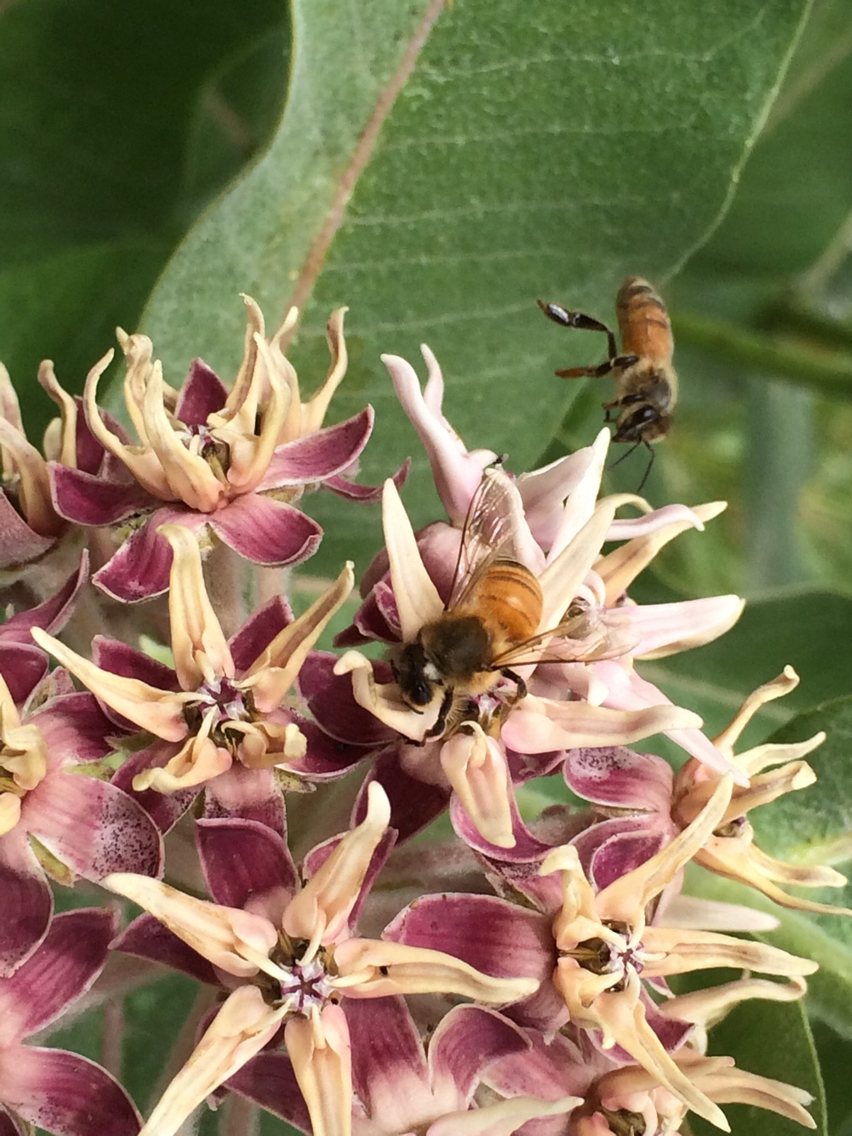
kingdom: Plantae
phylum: Tracheophyta
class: Magnoliopsida
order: Gentianales
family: Apocynaceae
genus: Asclepias
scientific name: Asclepias speciosa
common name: Showy milkweed
